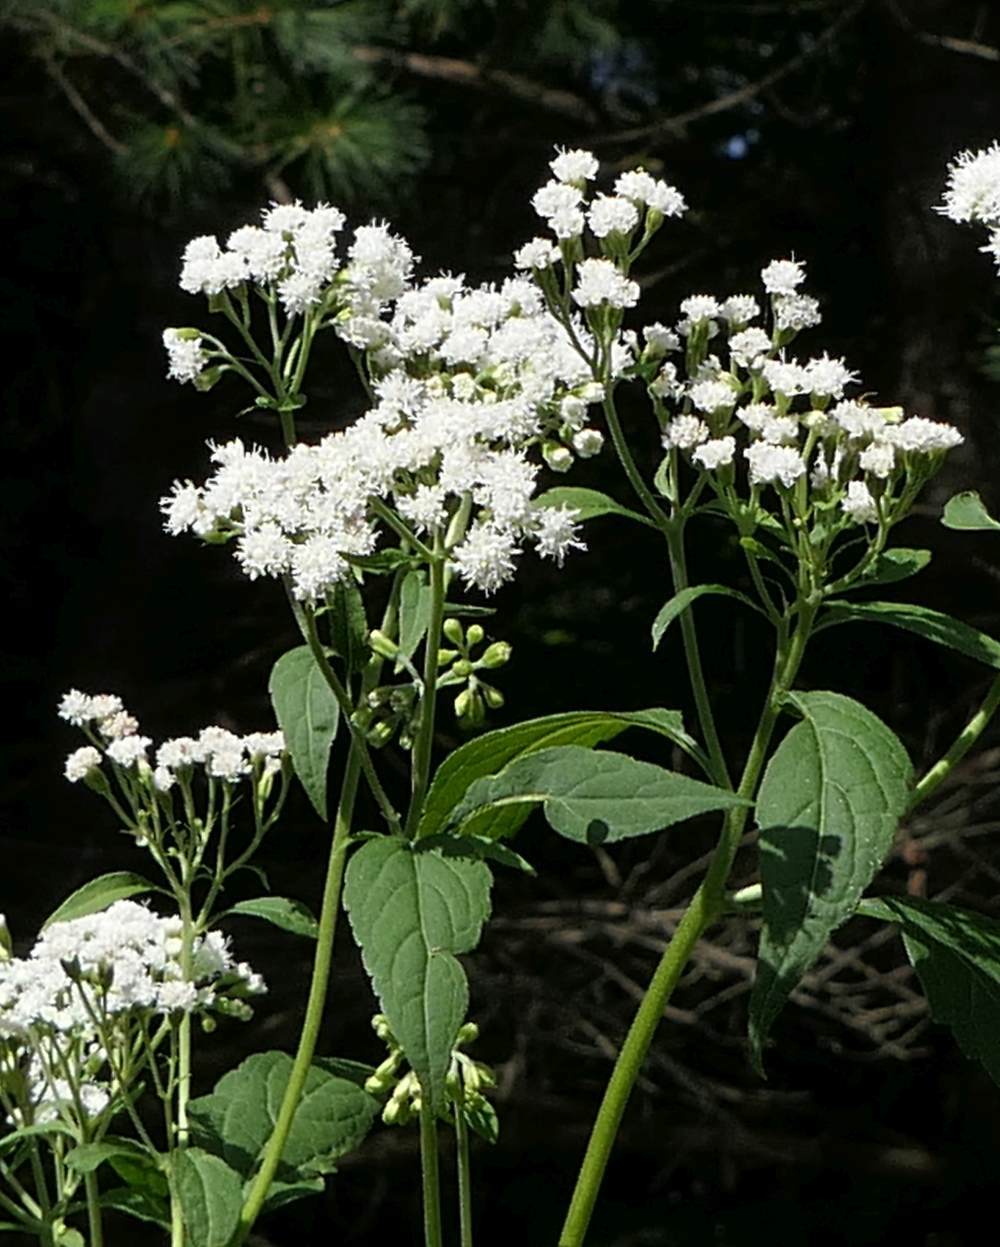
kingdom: Plantae
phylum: Tracheophyta
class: Magnoliopsida
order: Asterales
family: Asteraceae
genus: Ageratina
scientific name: Ageratina altissima
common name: White snakeroot
